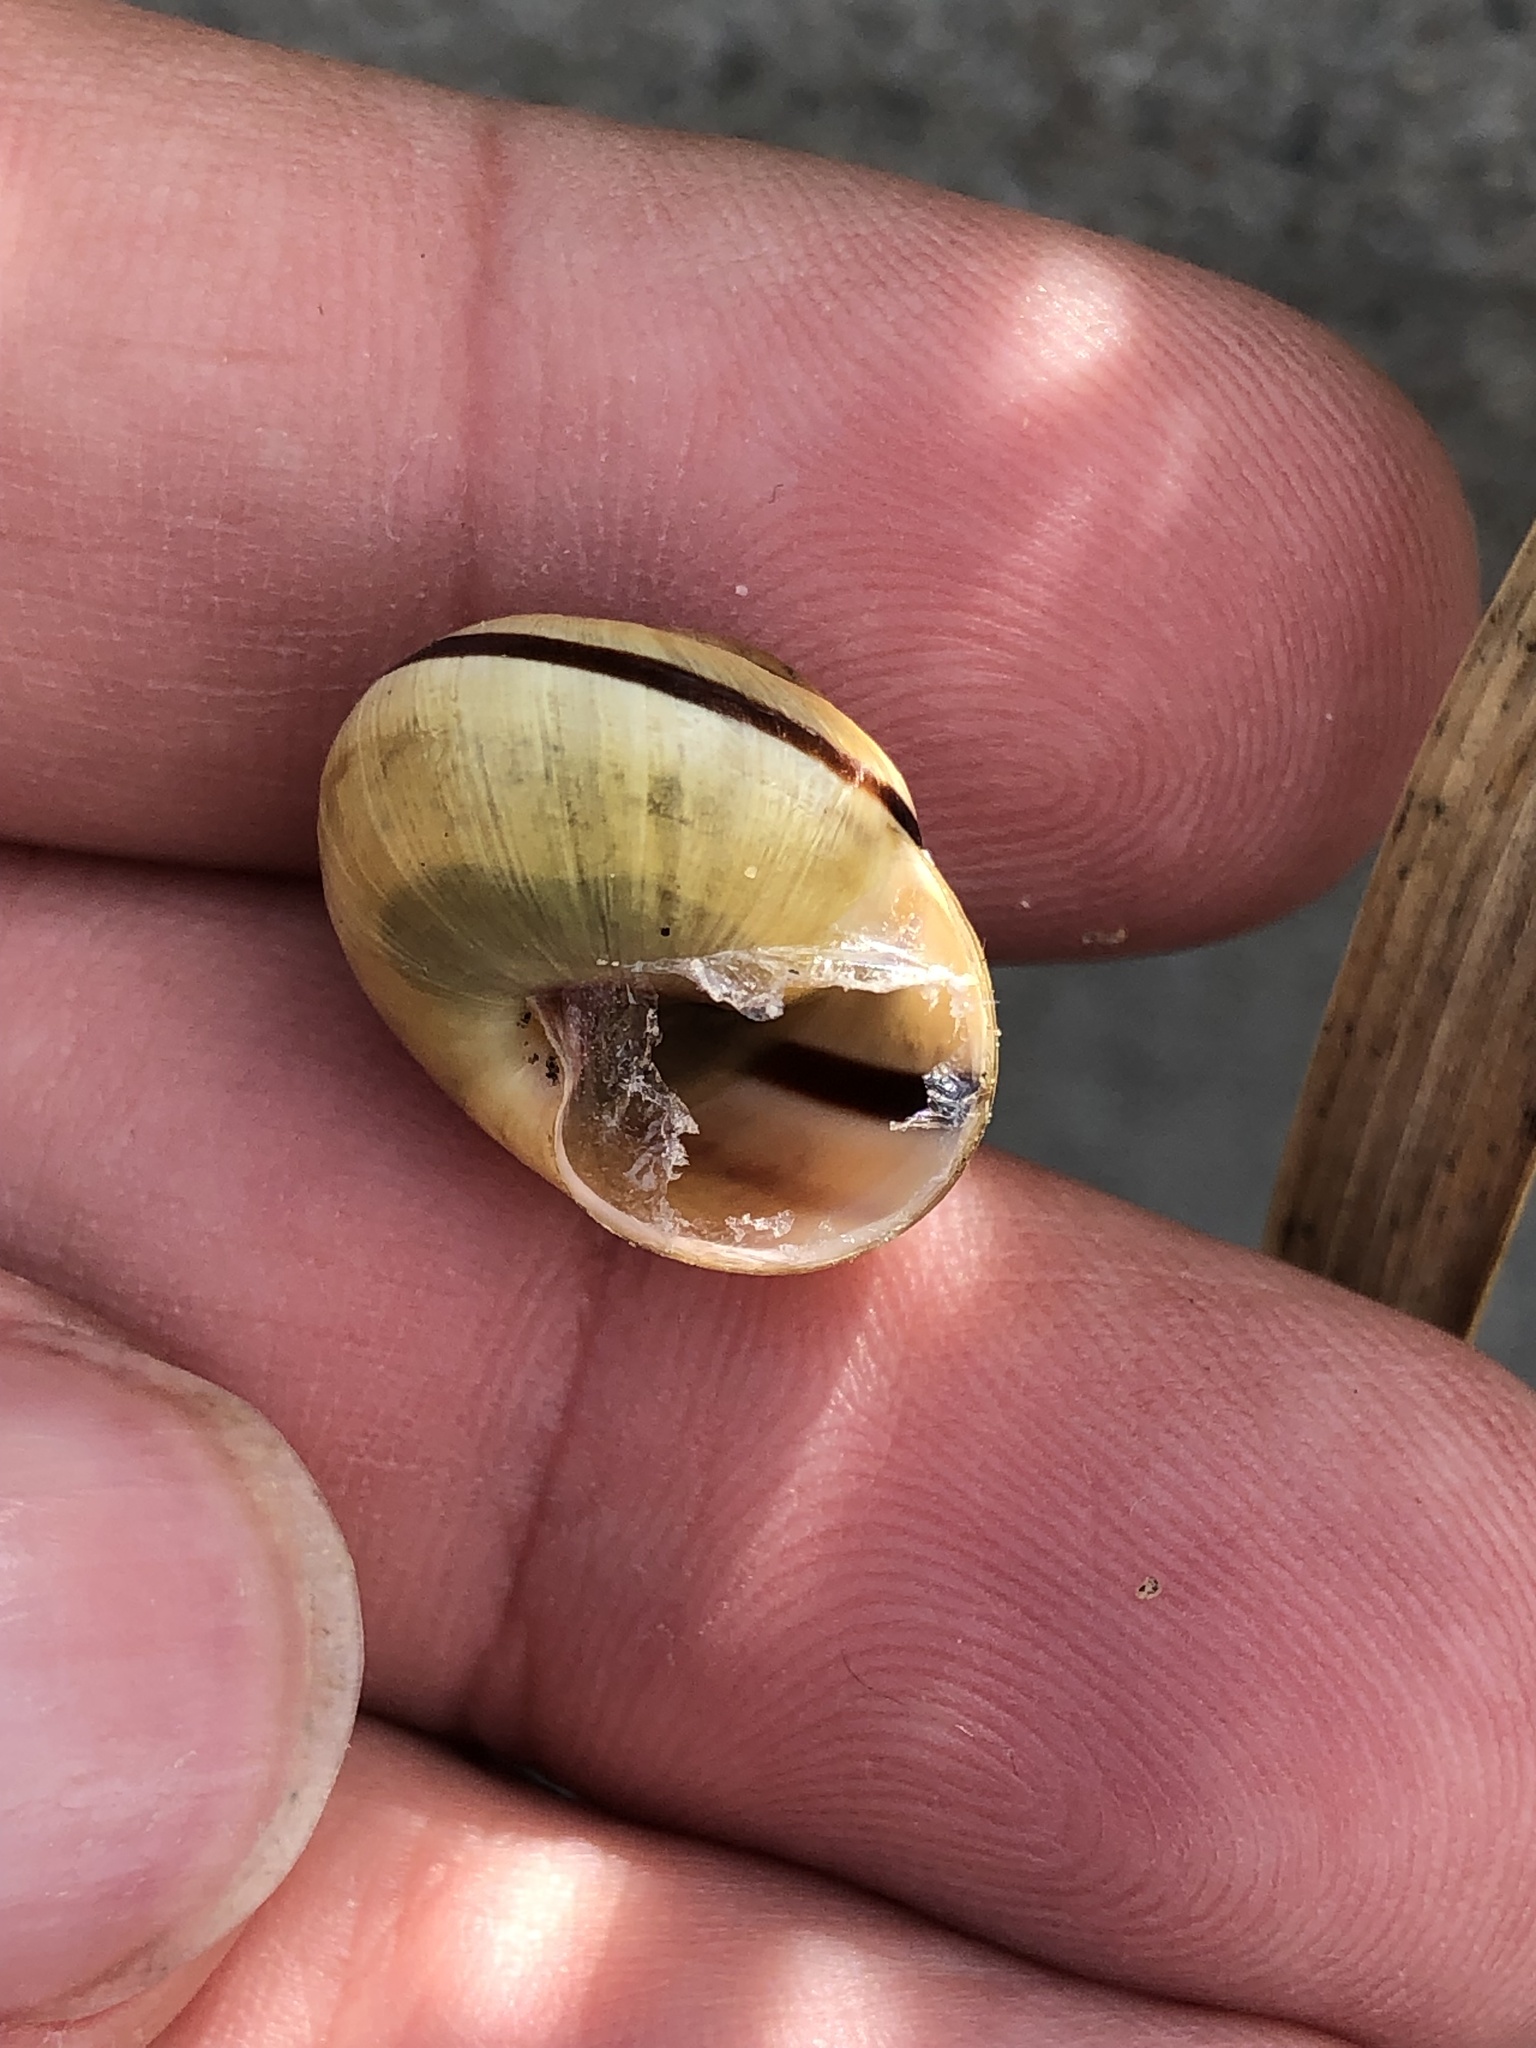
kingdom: Animalia
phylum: Mollusca
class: Gastropoda
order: Stylommatophora
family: Helicidae
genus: Cepaea
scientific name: Cepaea nemoralis
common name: Grovesnail
